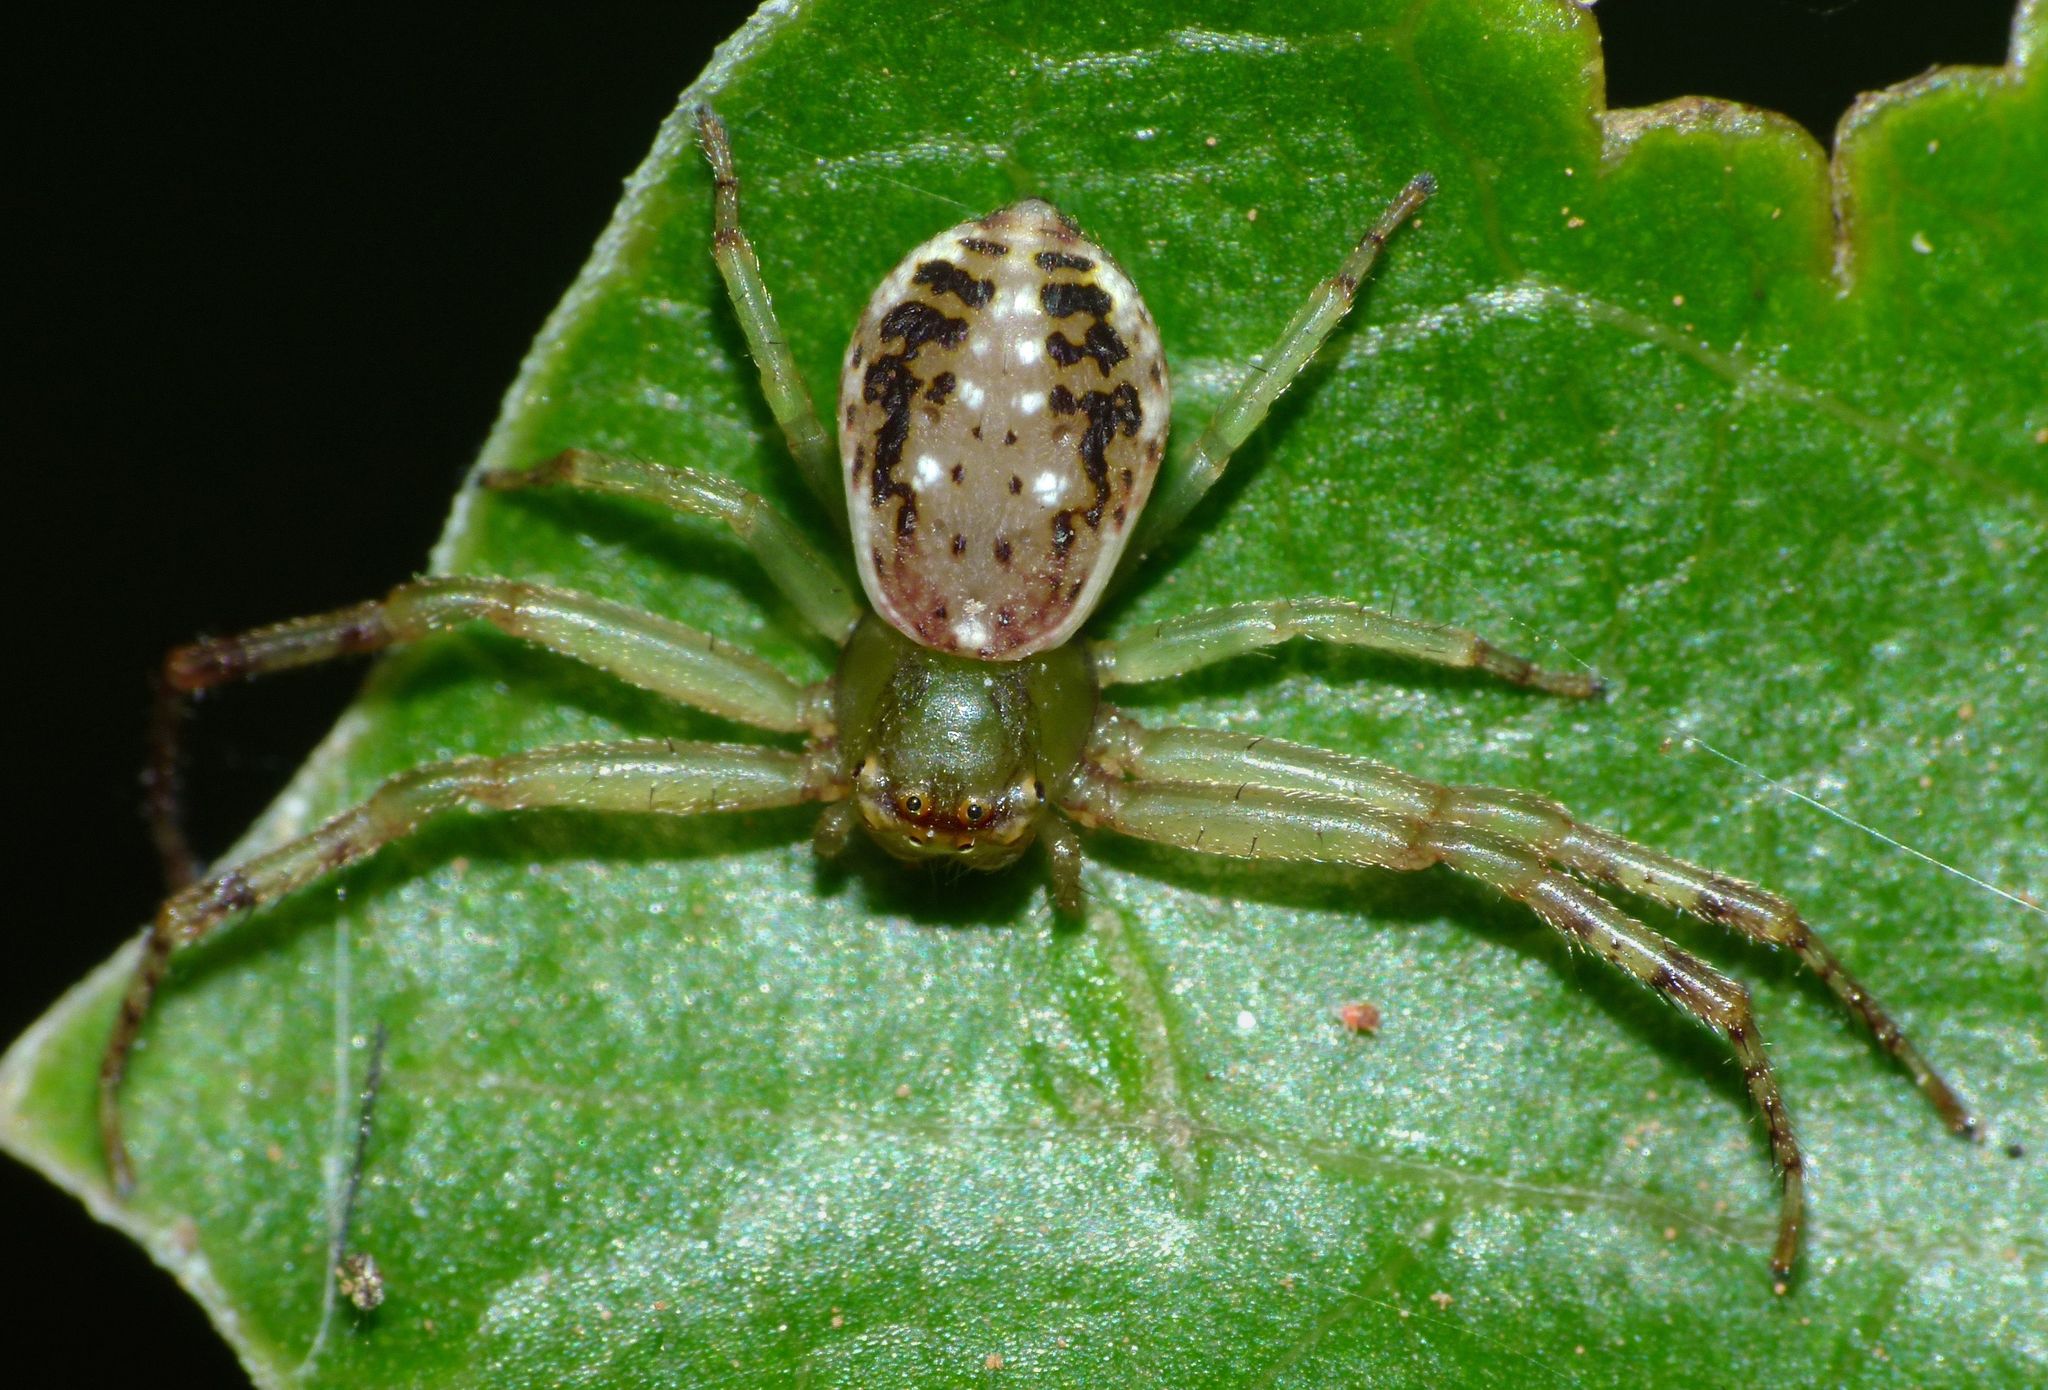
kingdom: Animalia
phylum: Arthropoda
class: Arachnida
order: Araneae
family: Thomisidae
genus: Diaea
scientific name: Diaea ambara
